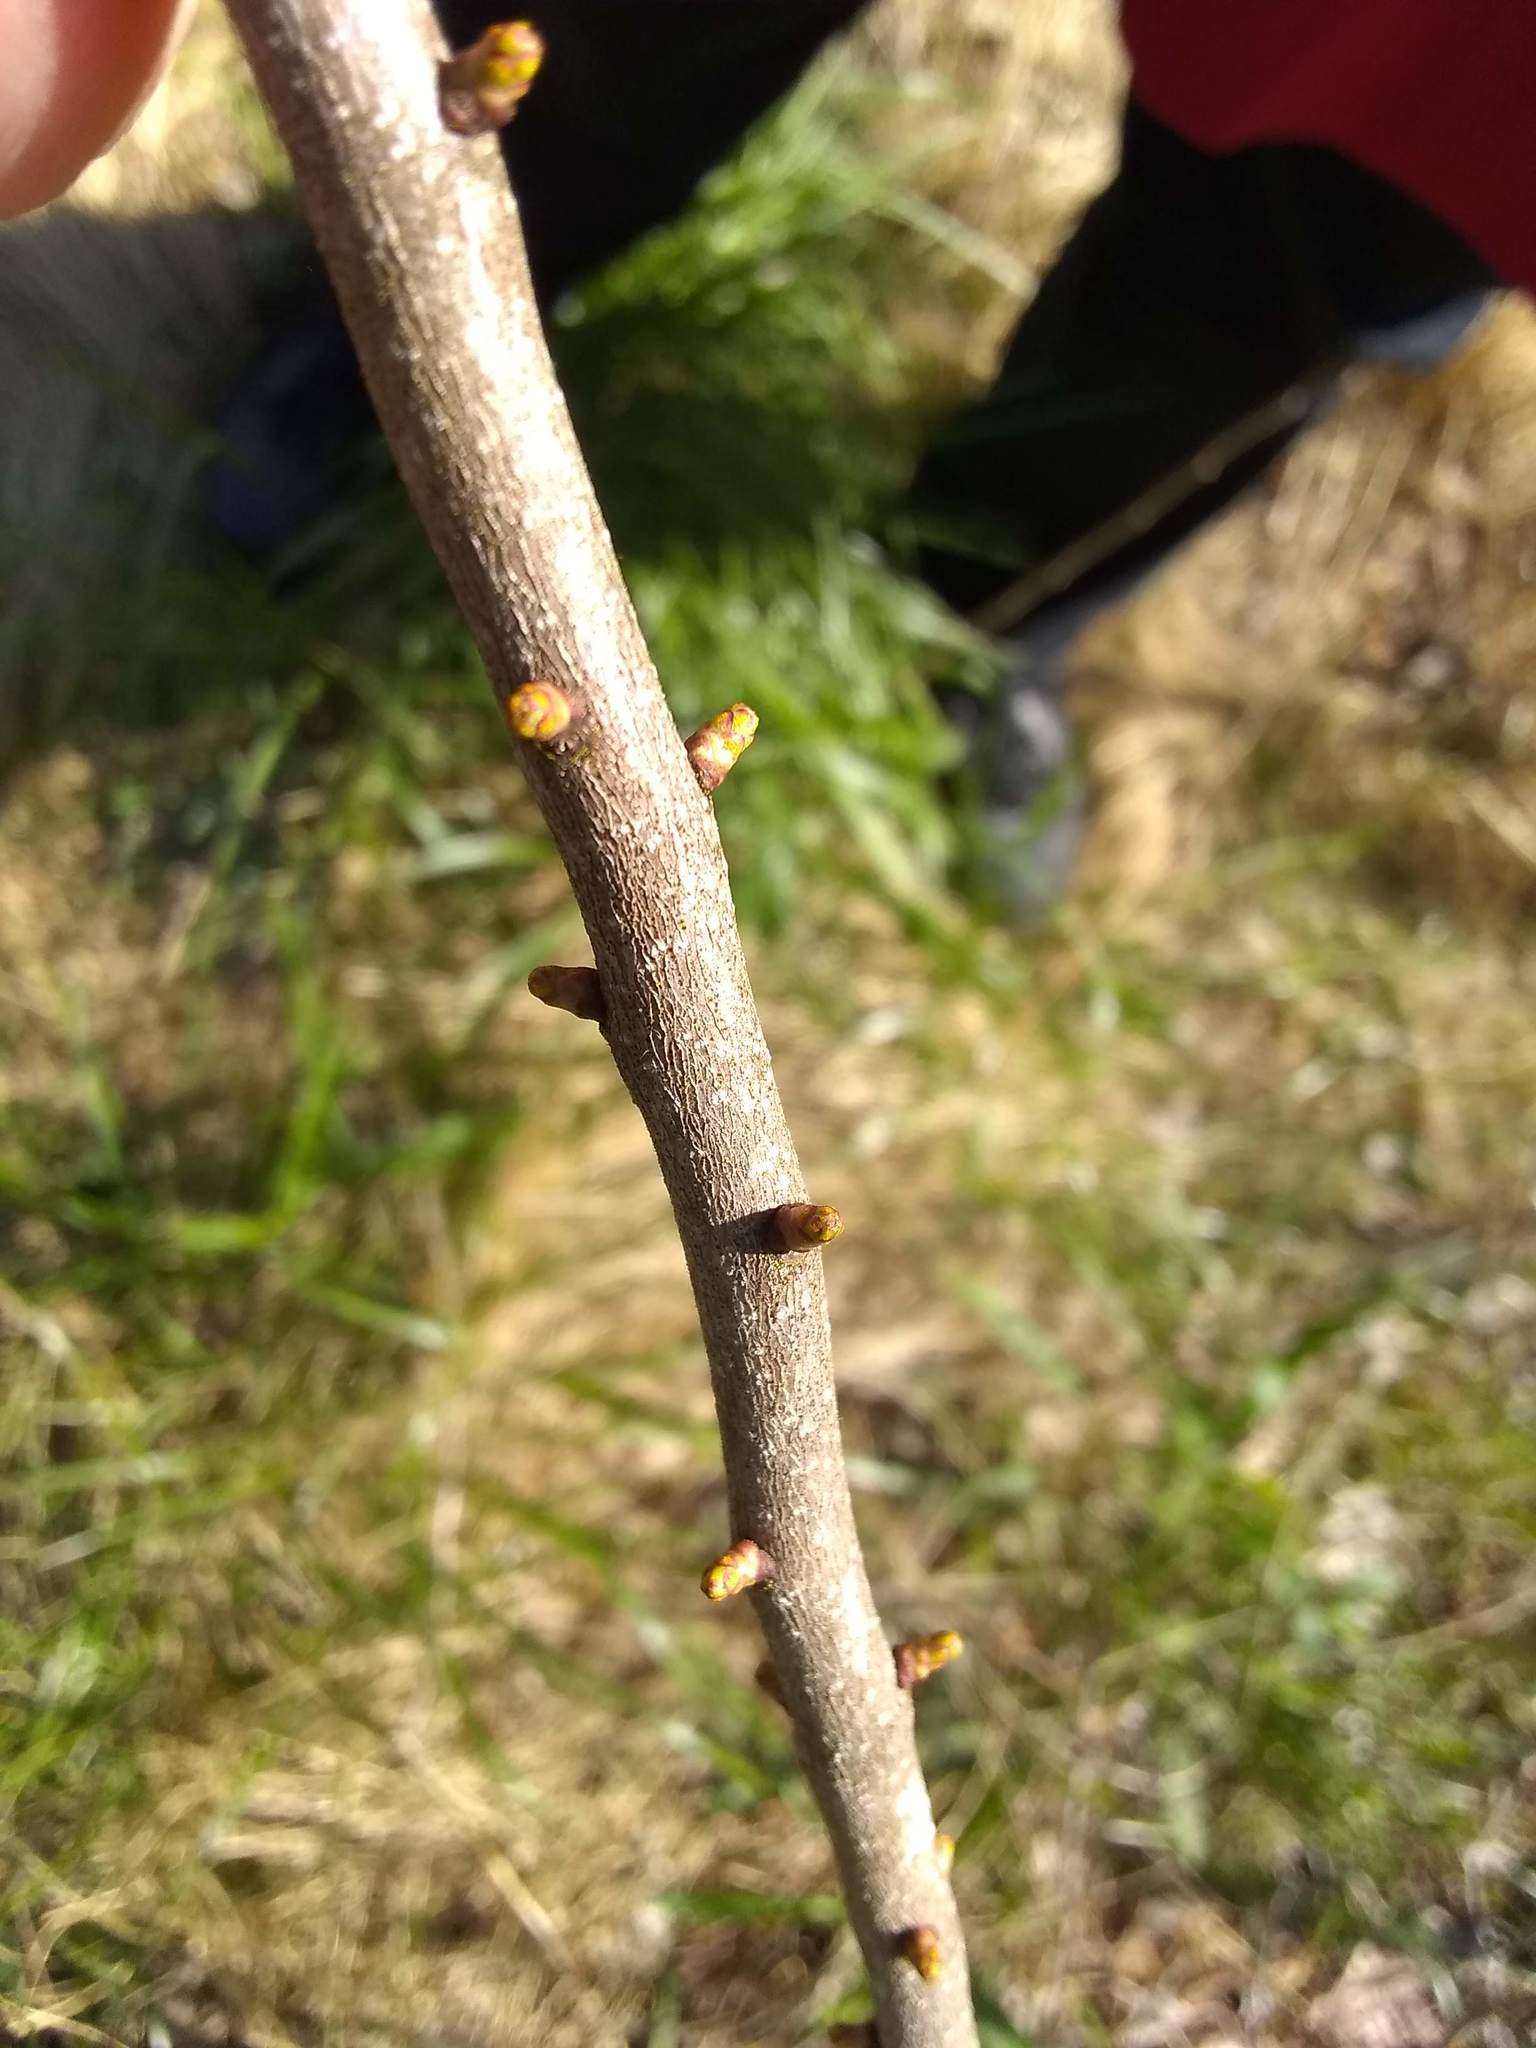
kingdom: Plantae
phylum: Tracheophyta
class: Magnoliopsida
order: Fagales
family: Myricaceae
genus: Morella
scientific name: Morella pensylvanica
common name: Northern bayberry
